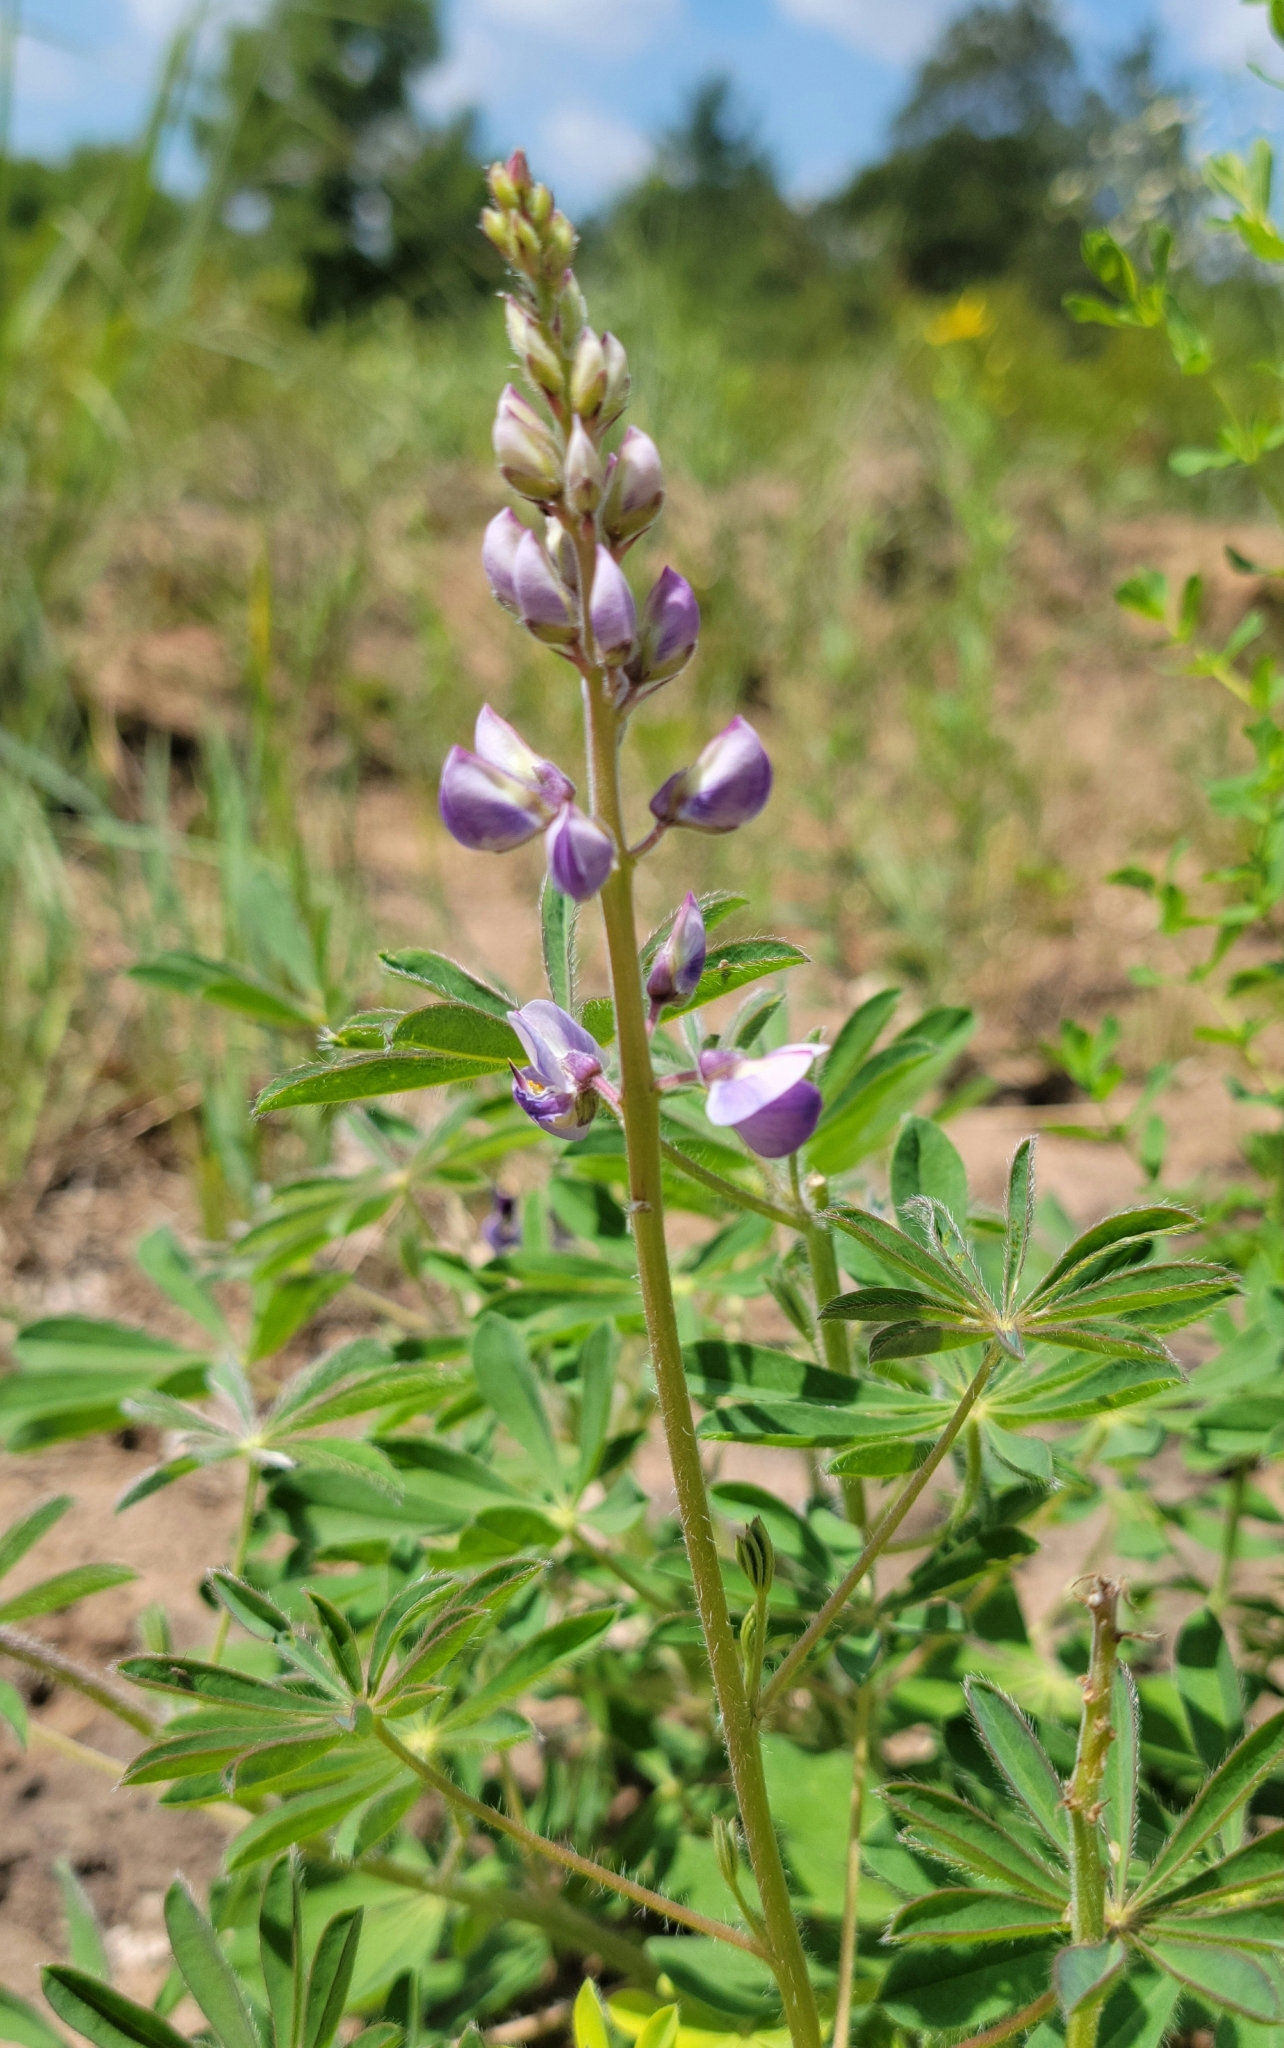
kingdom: Plantae
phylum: Tracheophyta
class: Magnoliopsida
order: Fabales
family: Fabaceae
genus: Lupinus
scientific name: Lupinus perennis
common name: Sundial lupine
